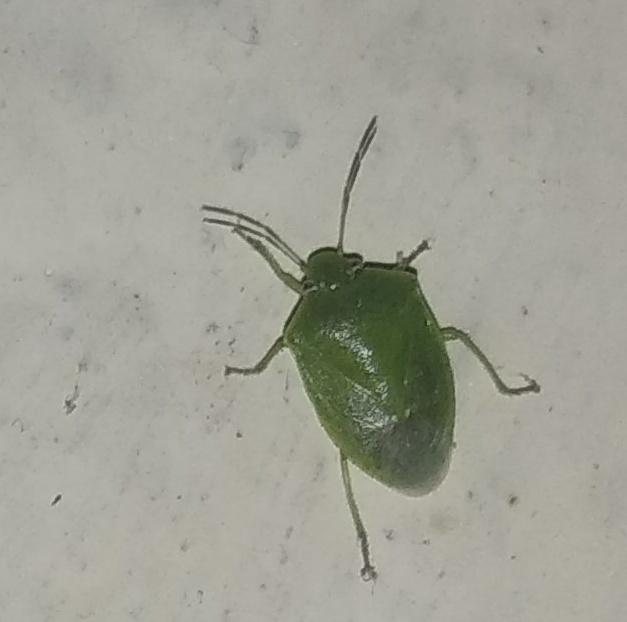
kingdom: Animalia
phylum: Arthropoda
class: Insecta
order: Hemiptera
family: Pentatomidae
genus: Acrosternum
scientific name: Acrosternum gramineum
